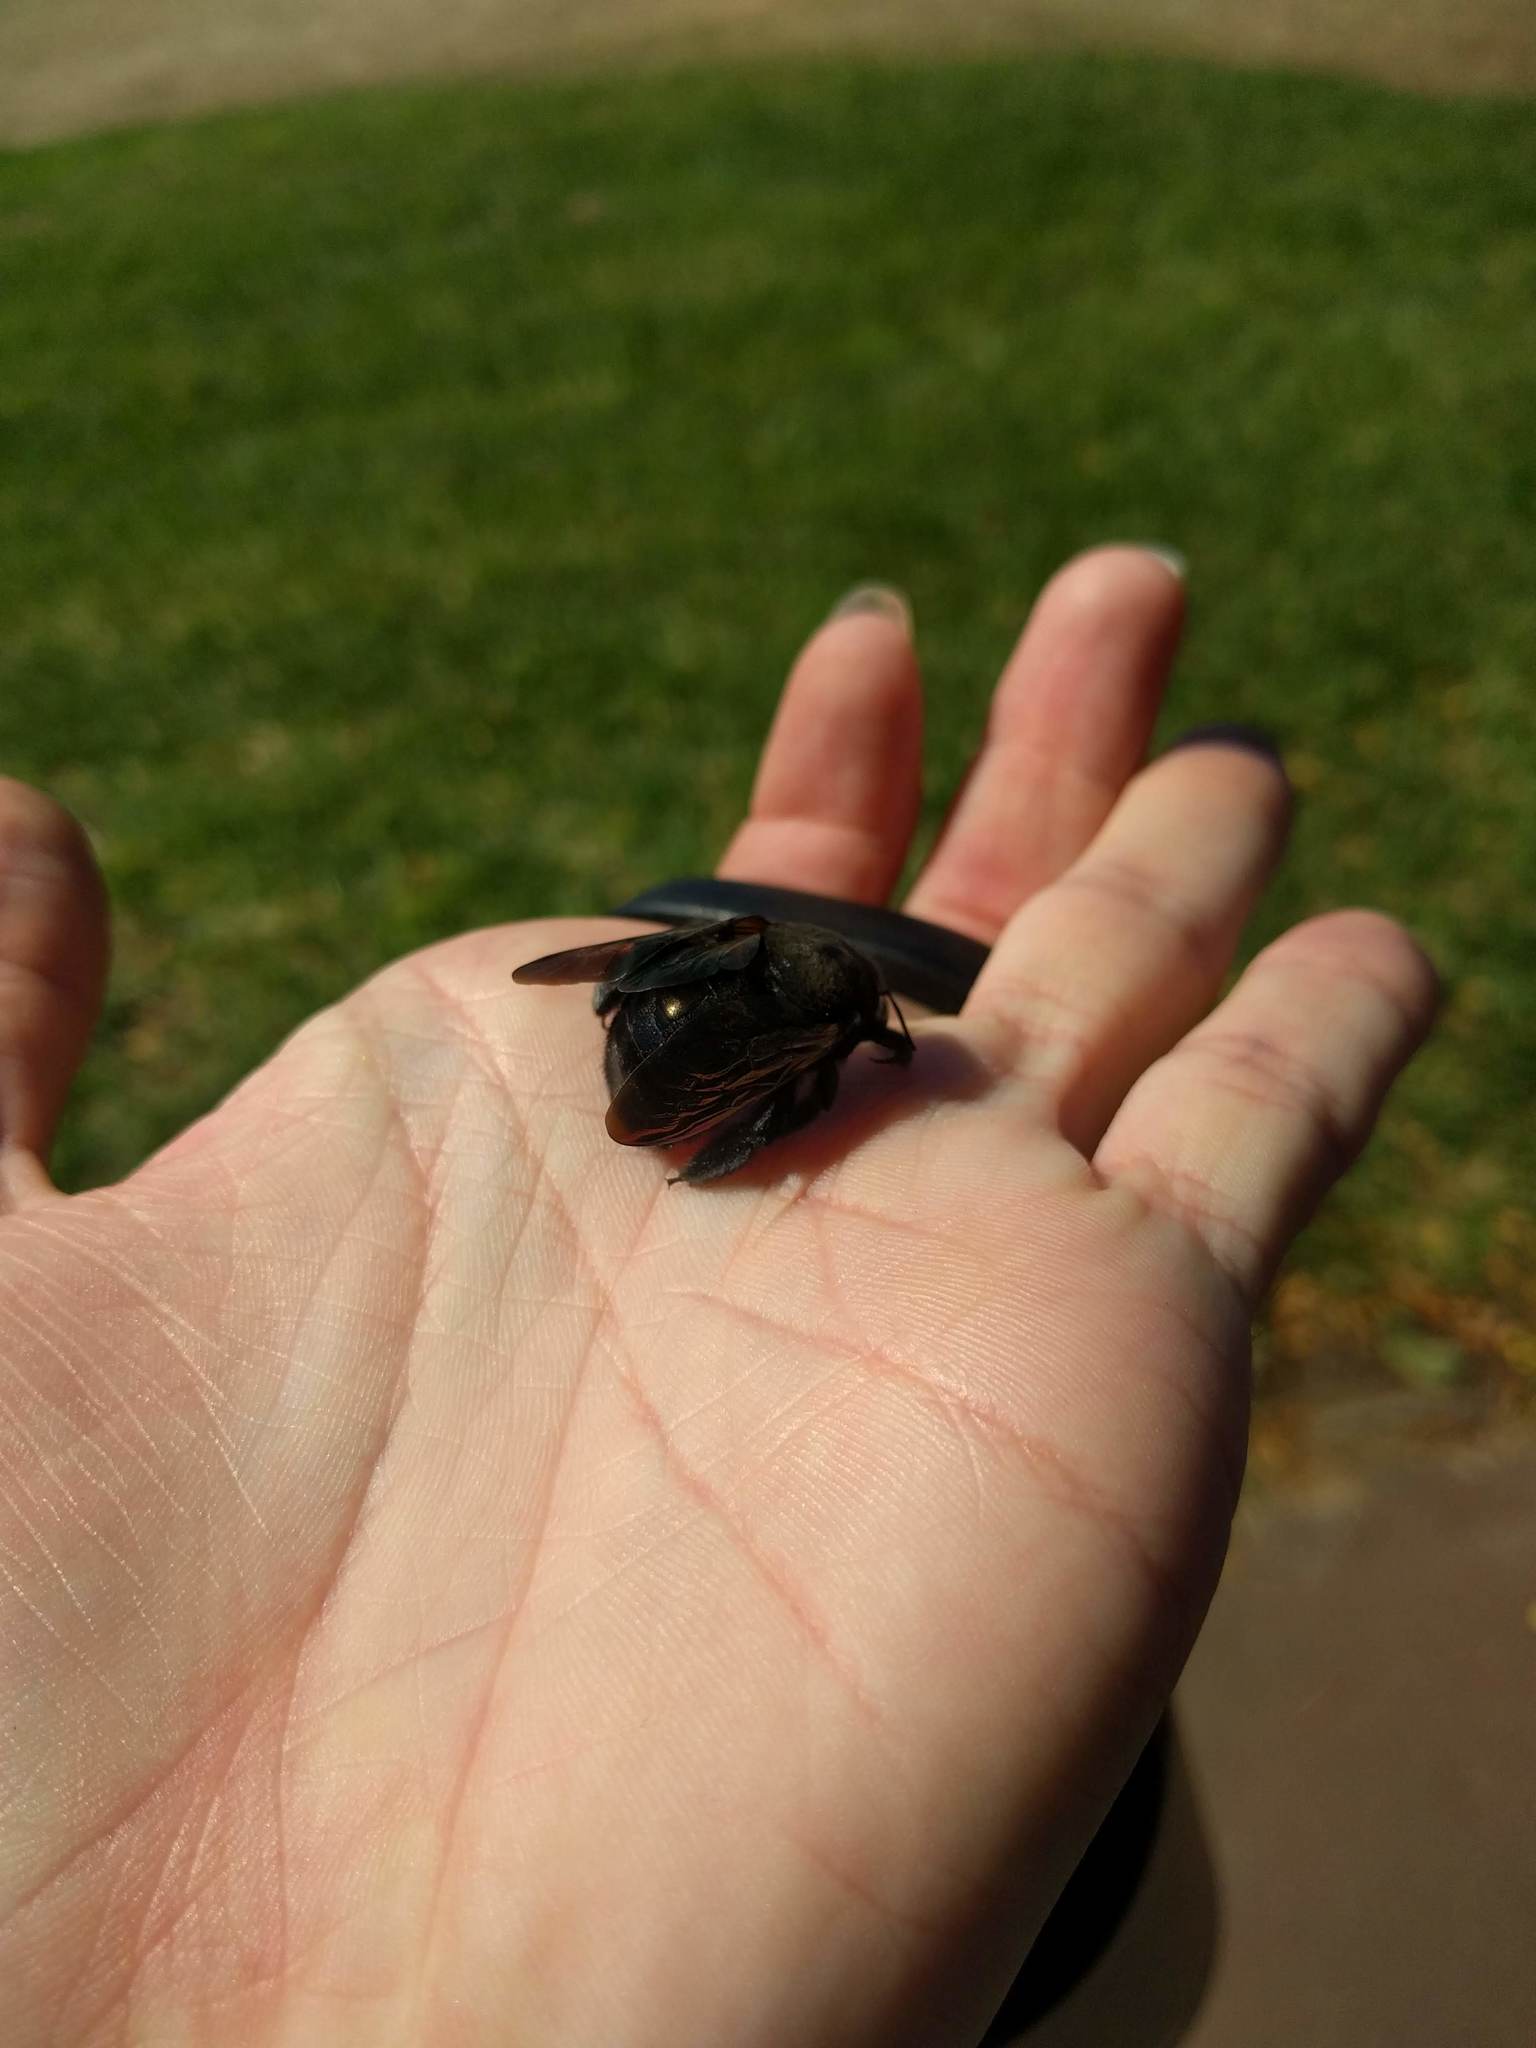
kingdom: Animalia
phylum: Arthropoda
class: Insecta
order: Hymenoptera
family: Apidae
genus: Xylocopa
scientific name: Xylocopa sonorina
